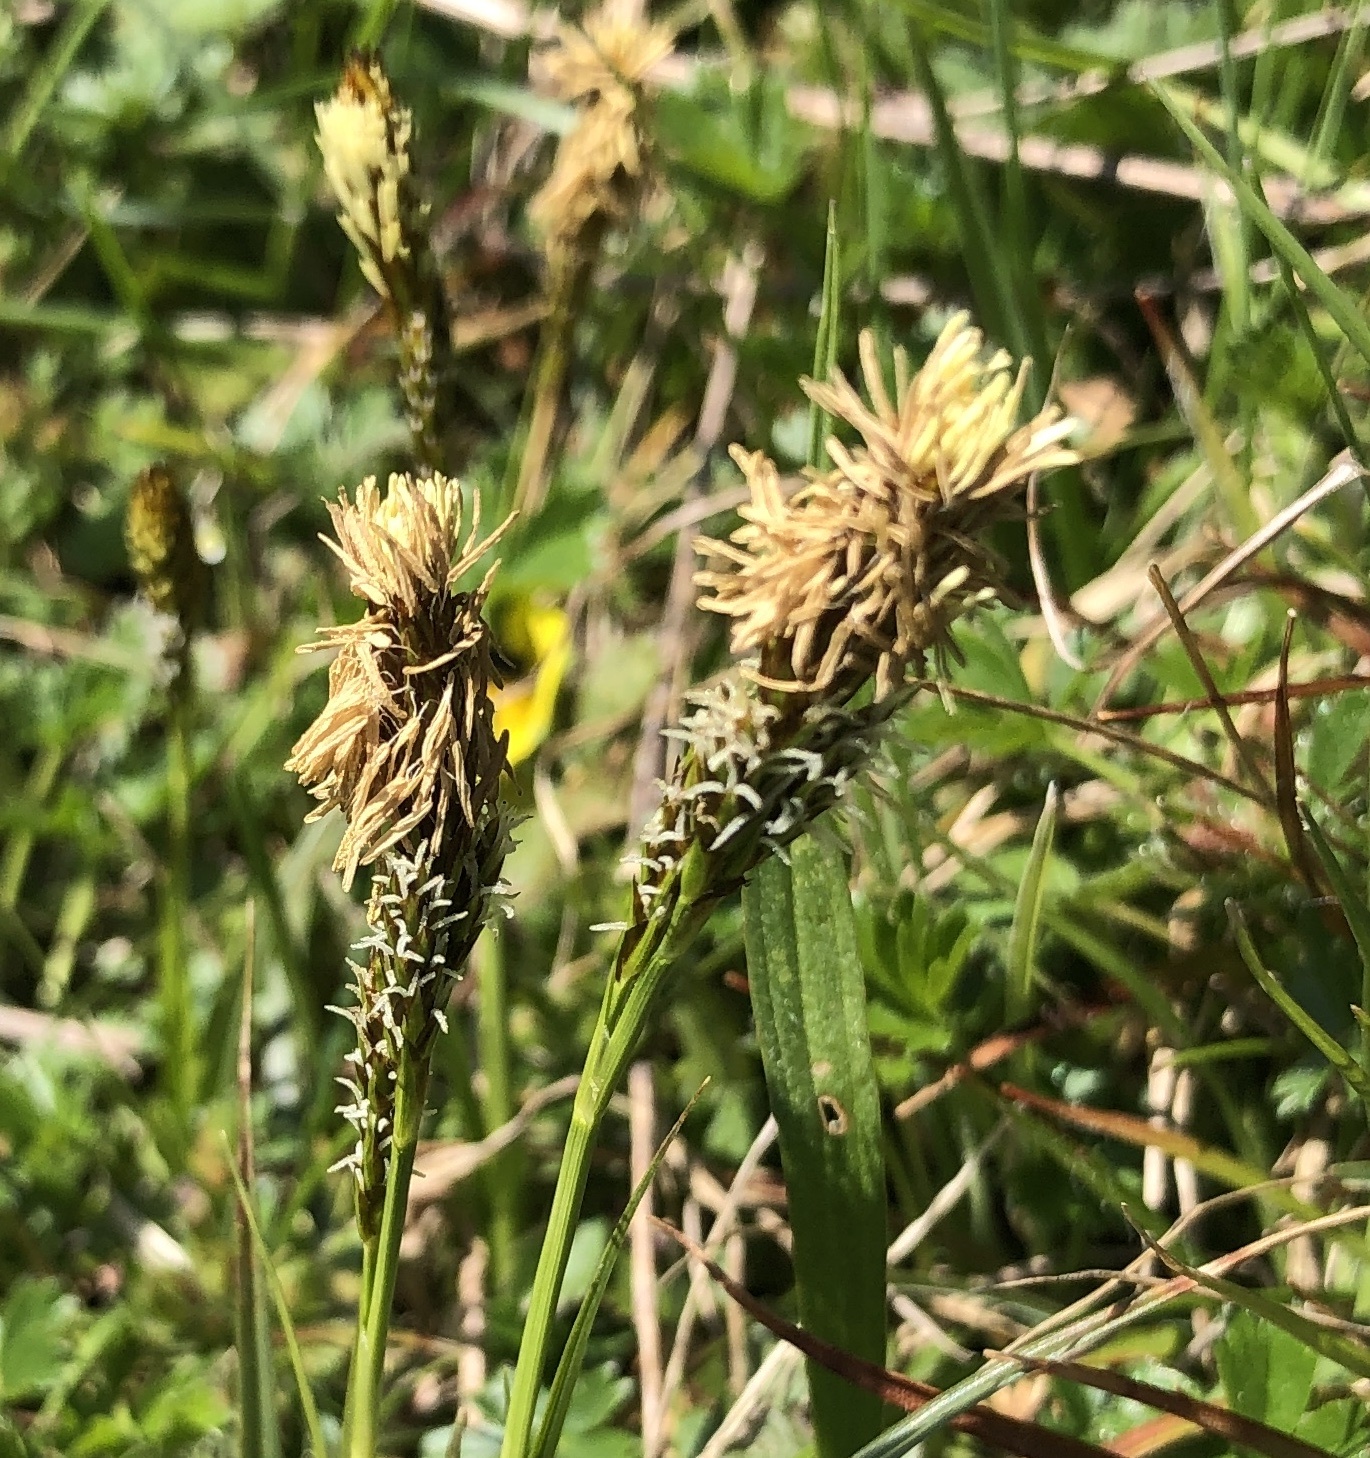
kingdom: Plantae
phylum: Tracheophyta
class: Liliopsida
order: Poales
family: Cyperaceae
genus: Carex
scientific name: Carex caryophyllea
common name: Spring sedge
